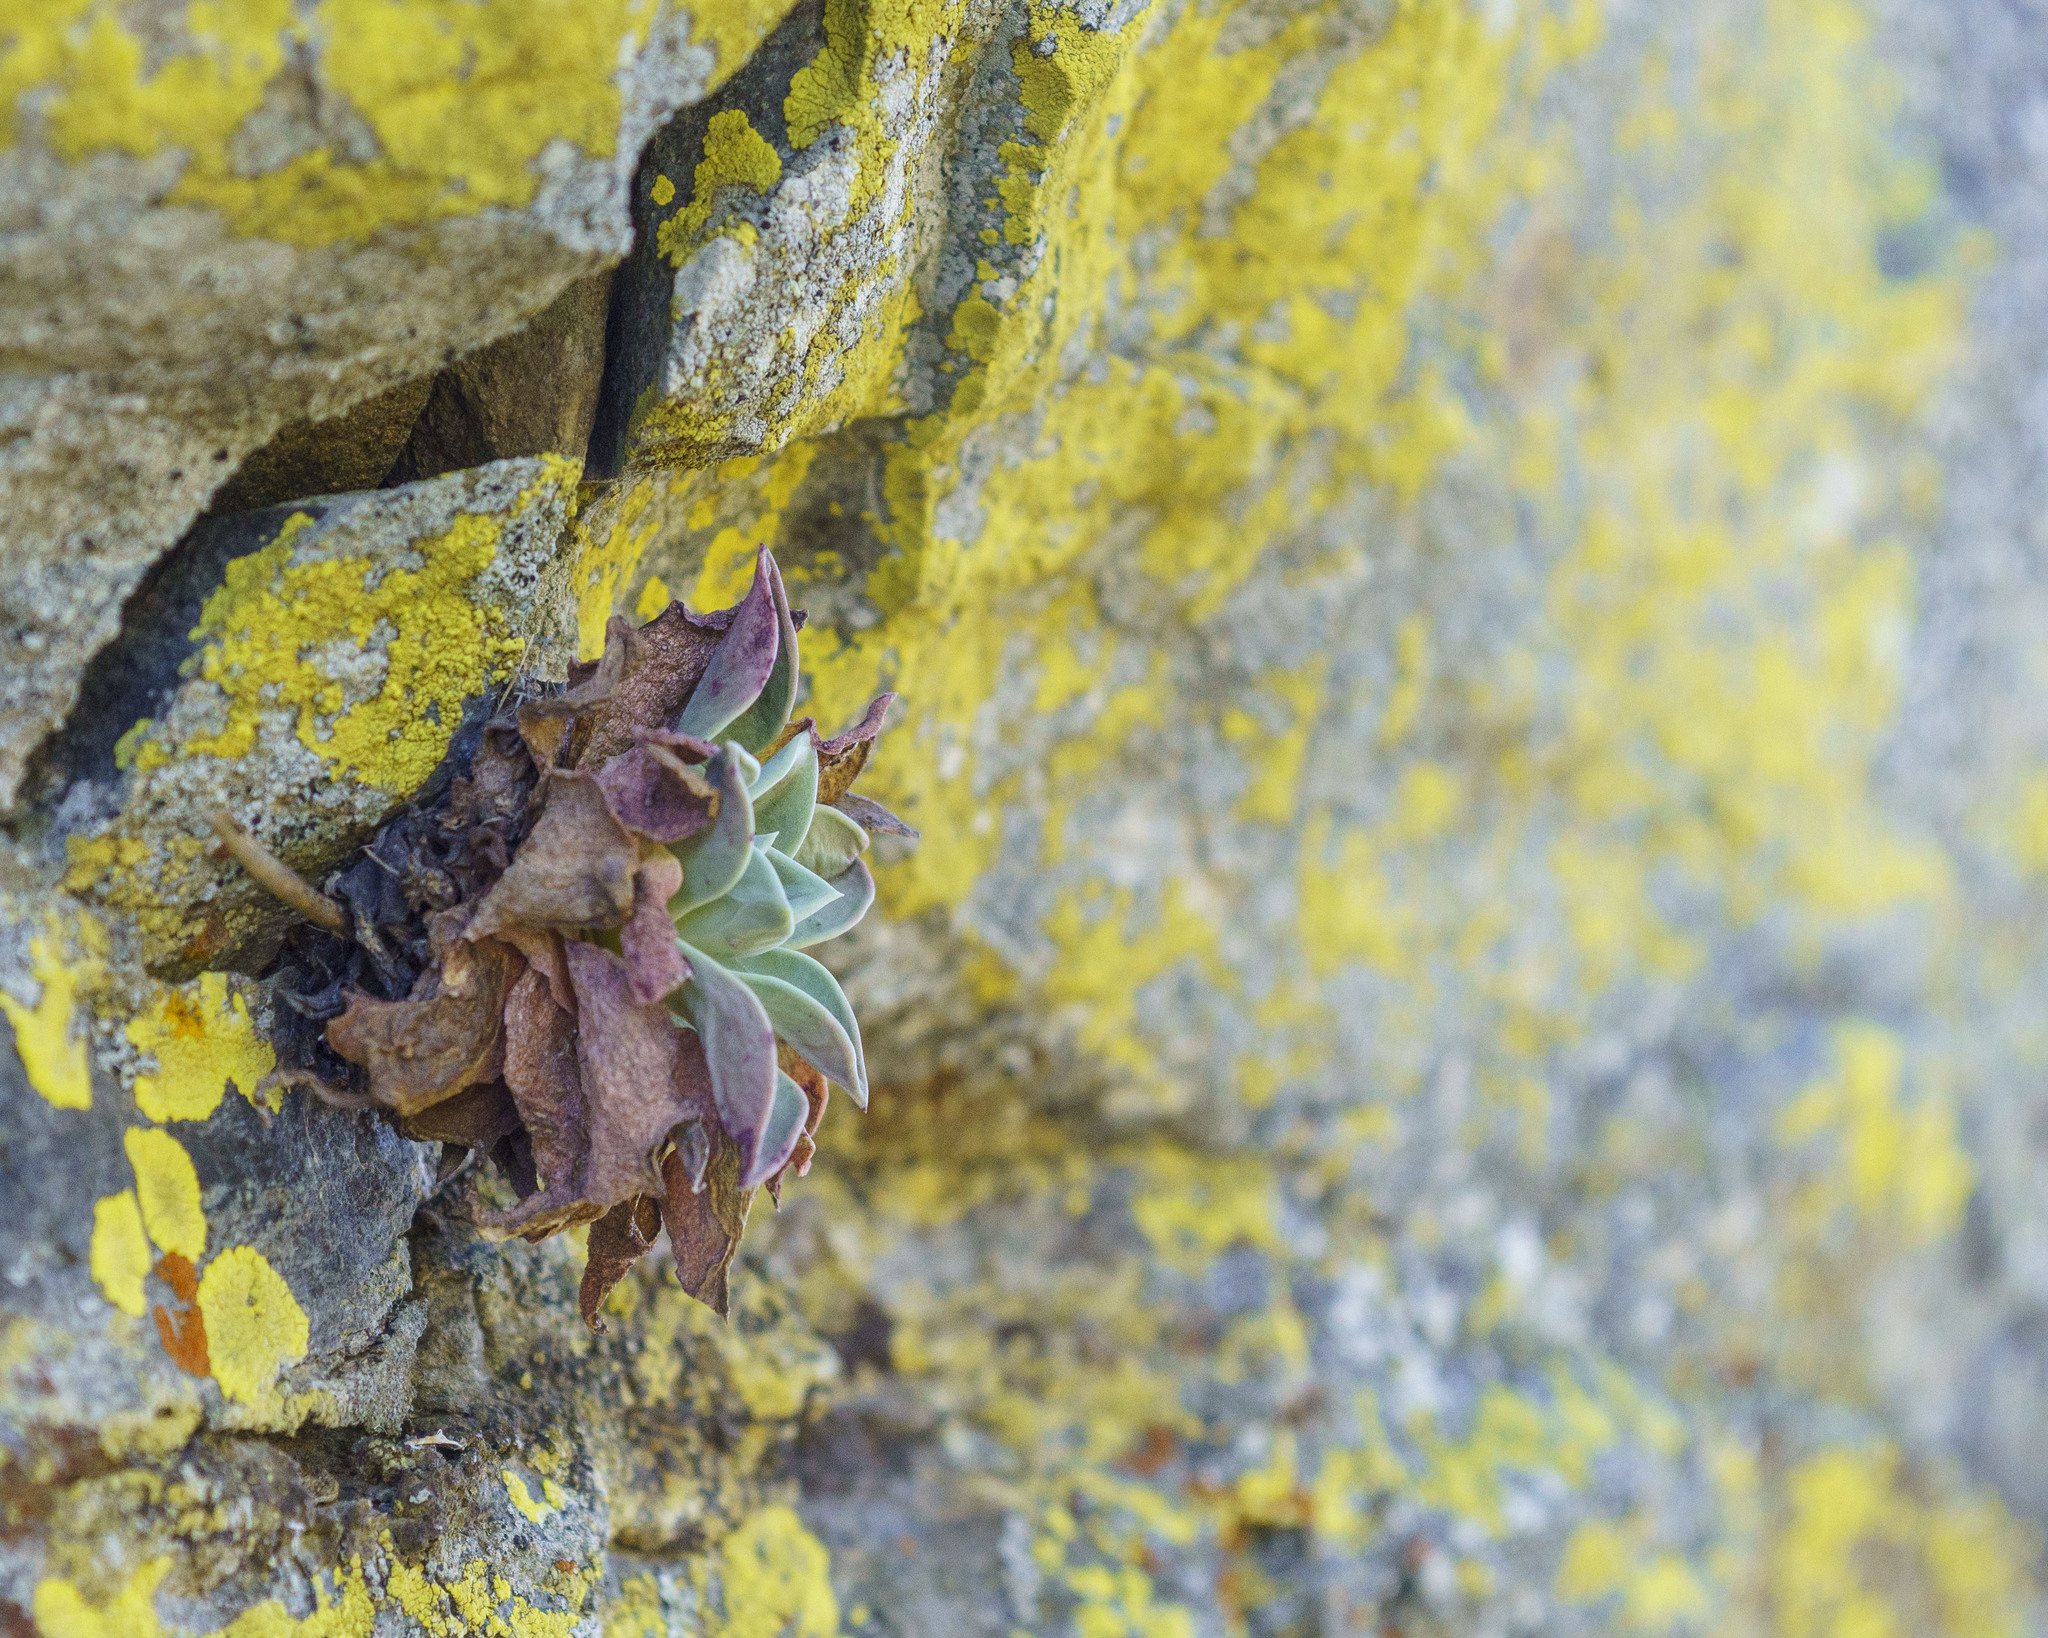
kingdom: Plantae
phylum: Tracheophyta
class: Magnoliopsida
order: Saxifragales
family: Crassulaceae
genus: Dudleya
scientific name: Dudleya rigida
